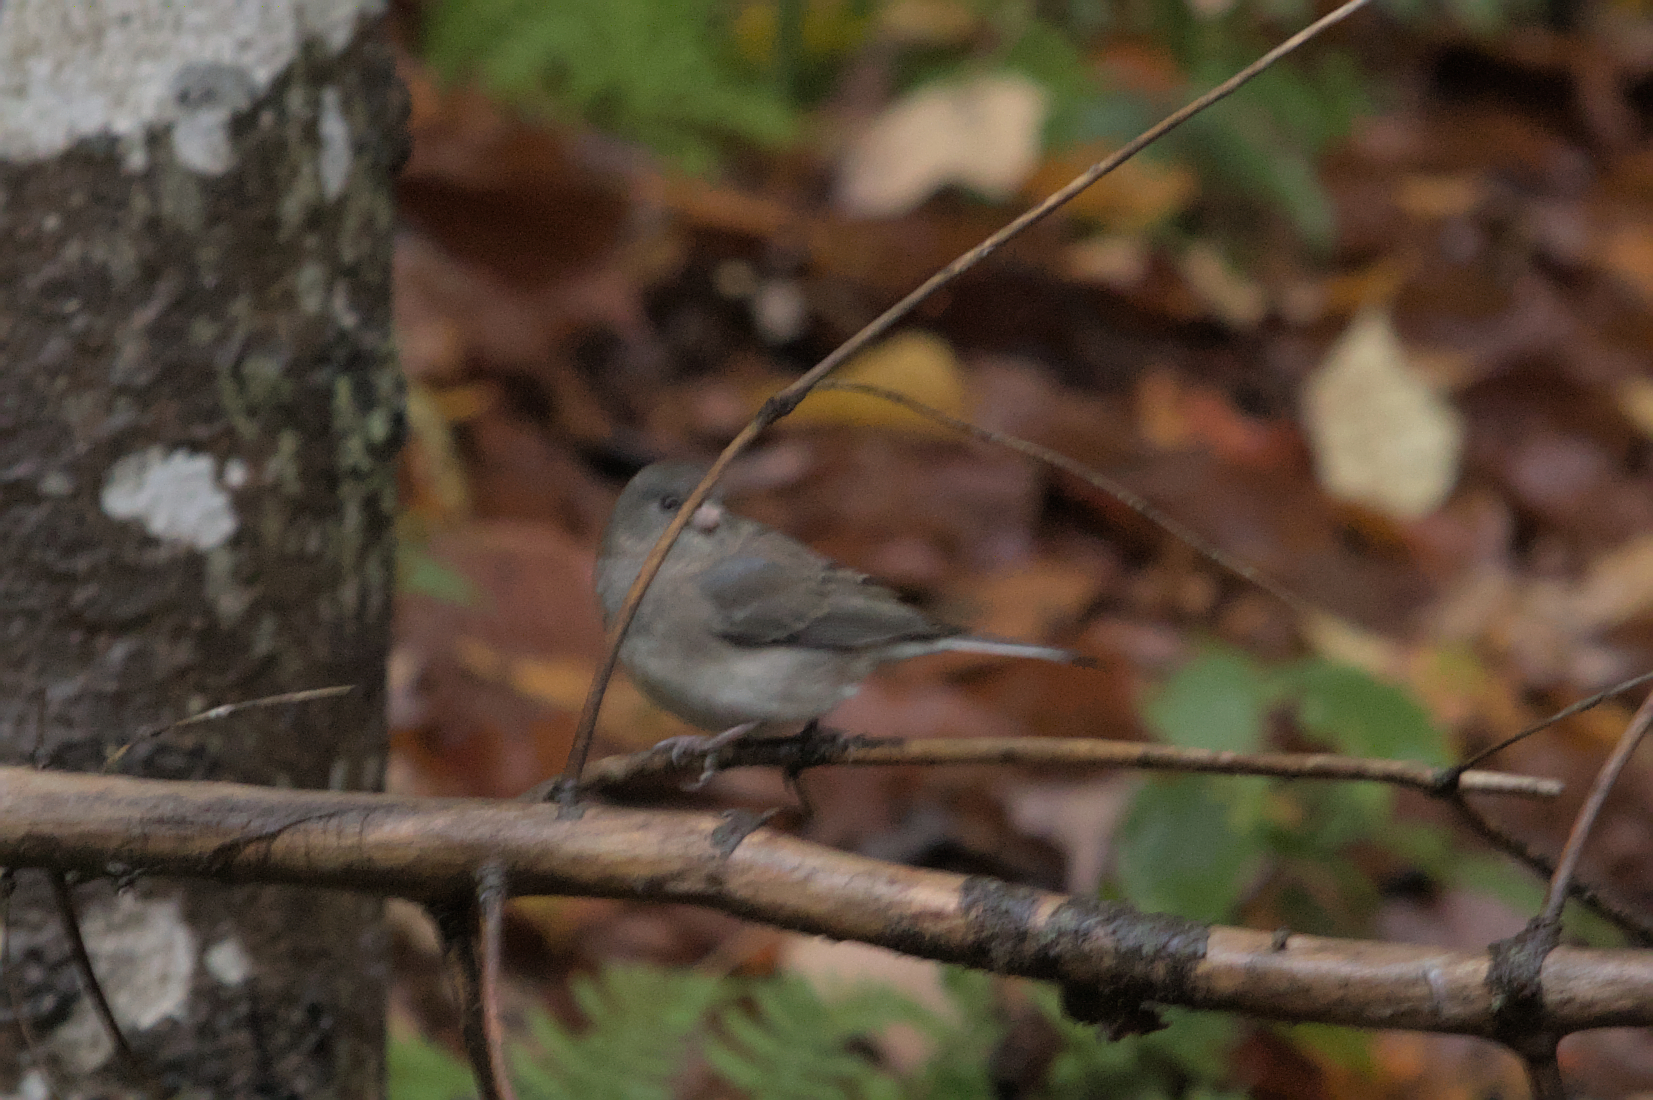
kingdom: Animalia
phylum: Chordata
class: Aves
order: Passeriformes
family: Passerellidae
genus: Junco
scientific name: Junco hyemalis
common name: Dark-eyed junco
